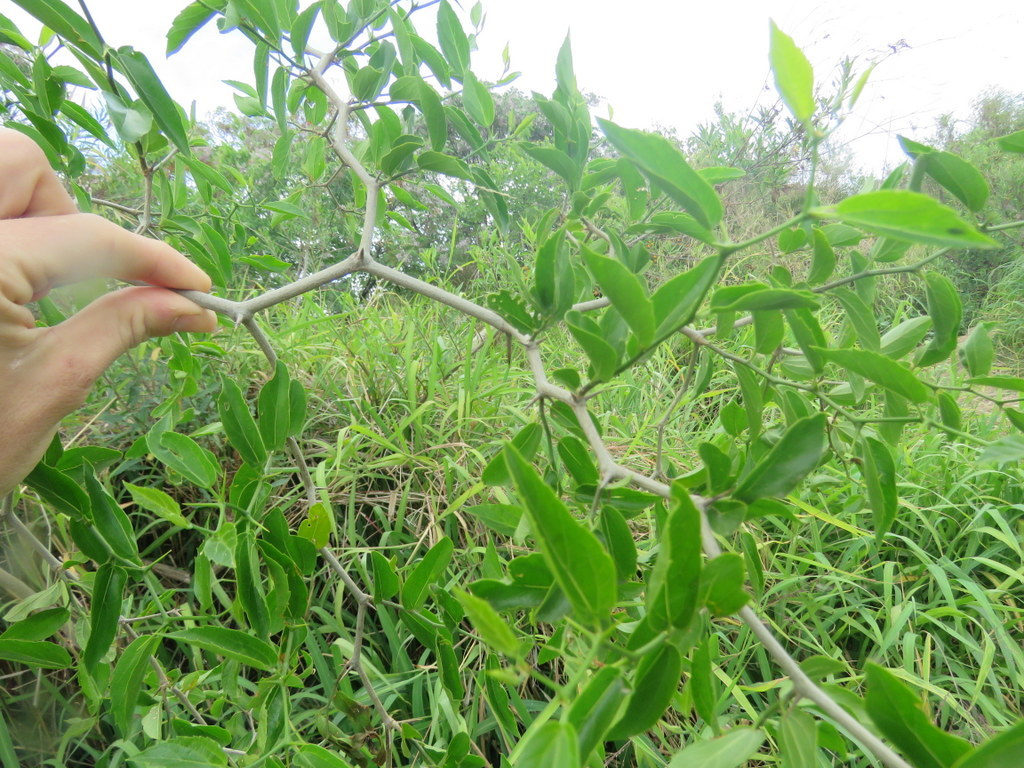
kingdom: Plantae
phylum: Tracheophyta
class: Magnoliopsida
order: Rosales
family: Cannabaceae
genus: Celtis
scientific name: Celtis tala
